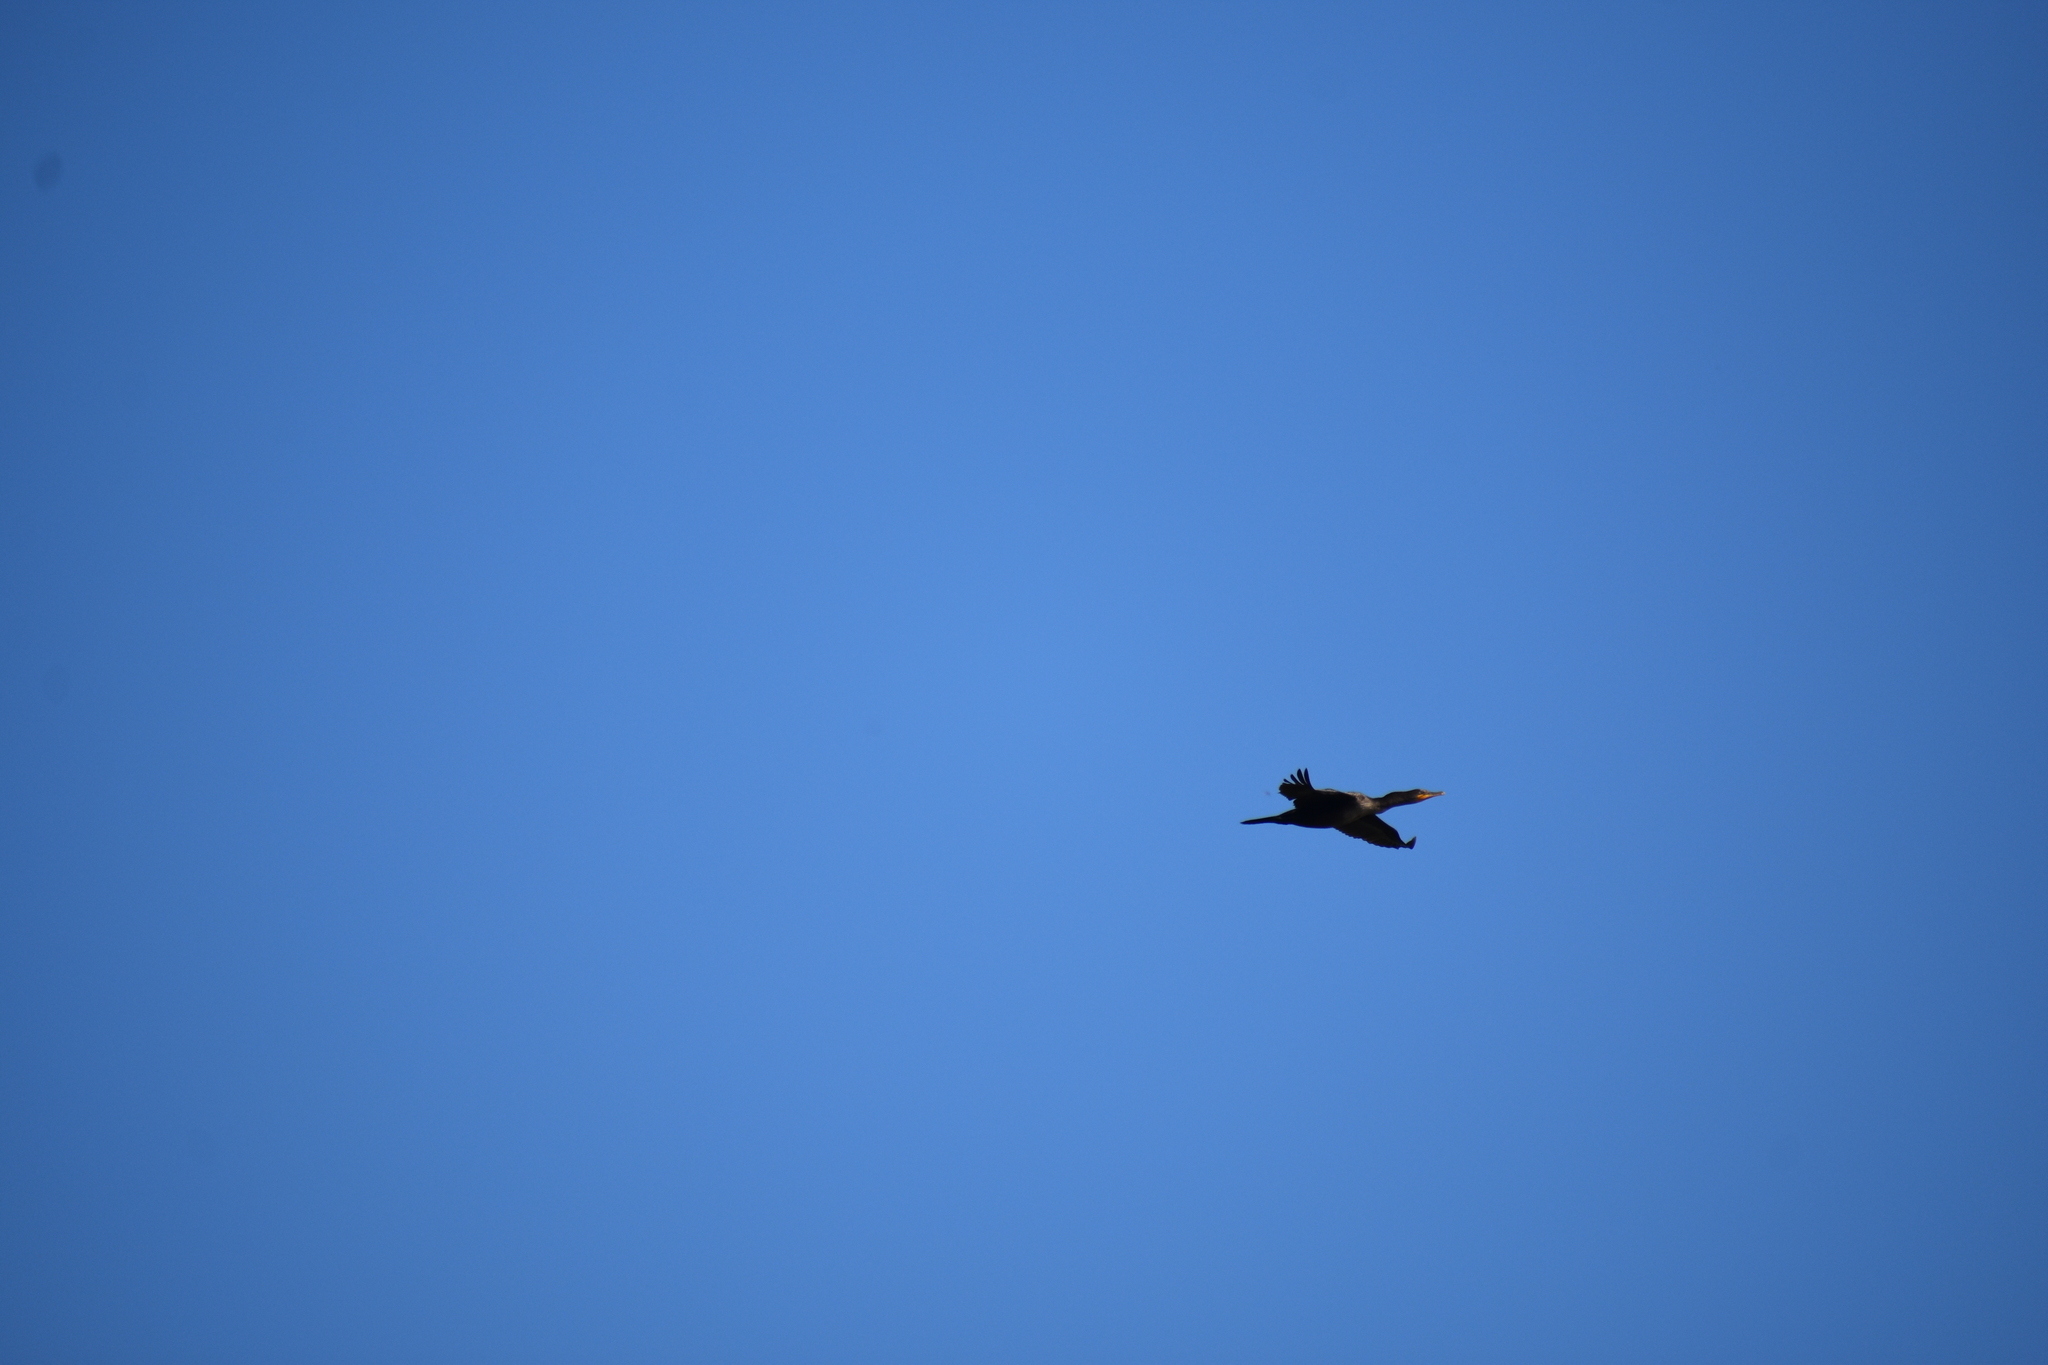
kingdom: Animalia
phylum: Chordata
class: Aves
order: Suliformes
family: Phalacrocoracidae
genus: Phalacrocorax
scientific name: Phalacrocorax auritus
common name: Double-crested cormorant
